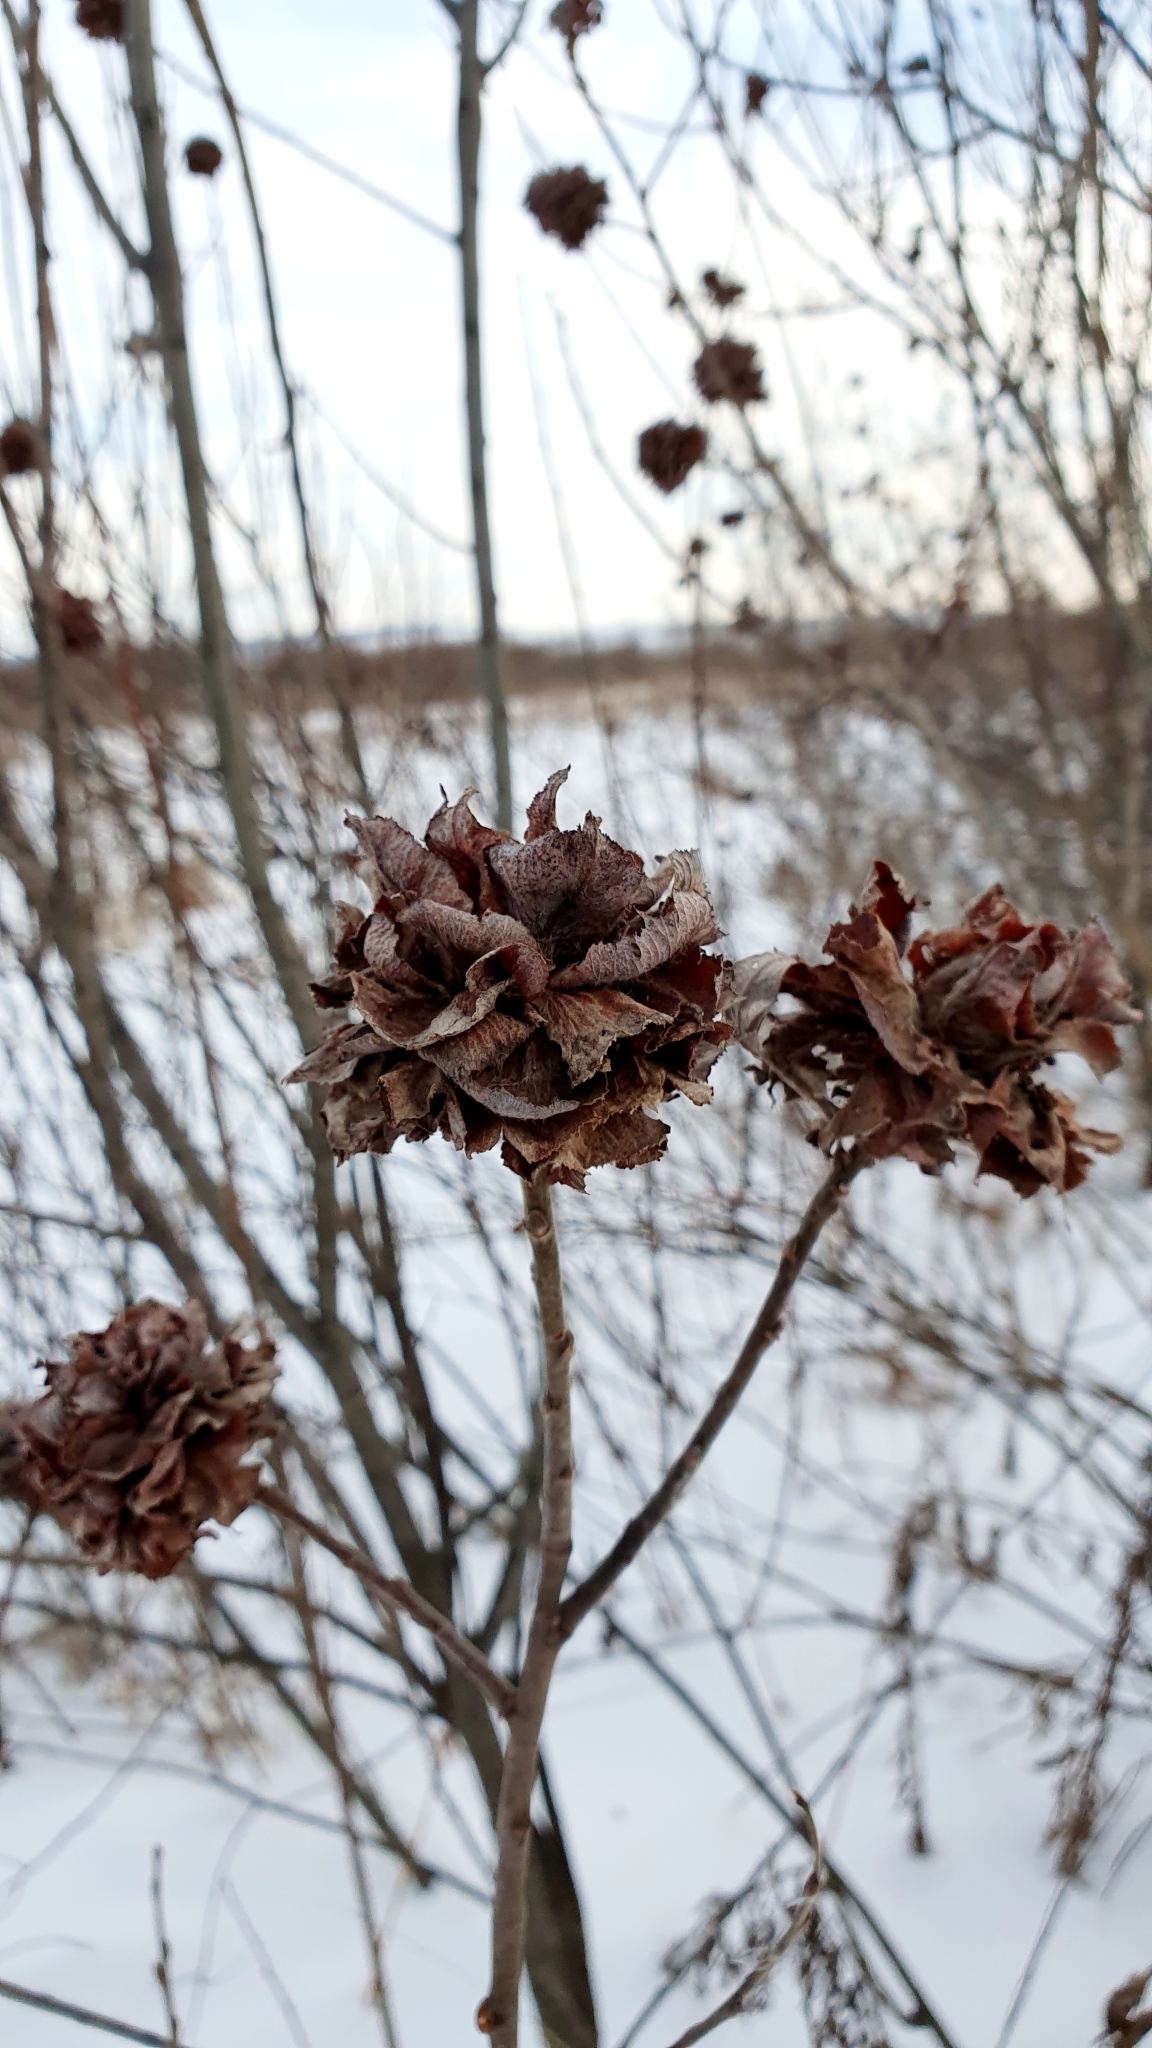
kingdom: Animalia
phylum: Arthropoda
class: Insecta
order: Diptera
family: Cecidomyiidae
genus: Rabdophaga
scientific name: Rabdophaga rosaria
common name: Willow rose gall midge
